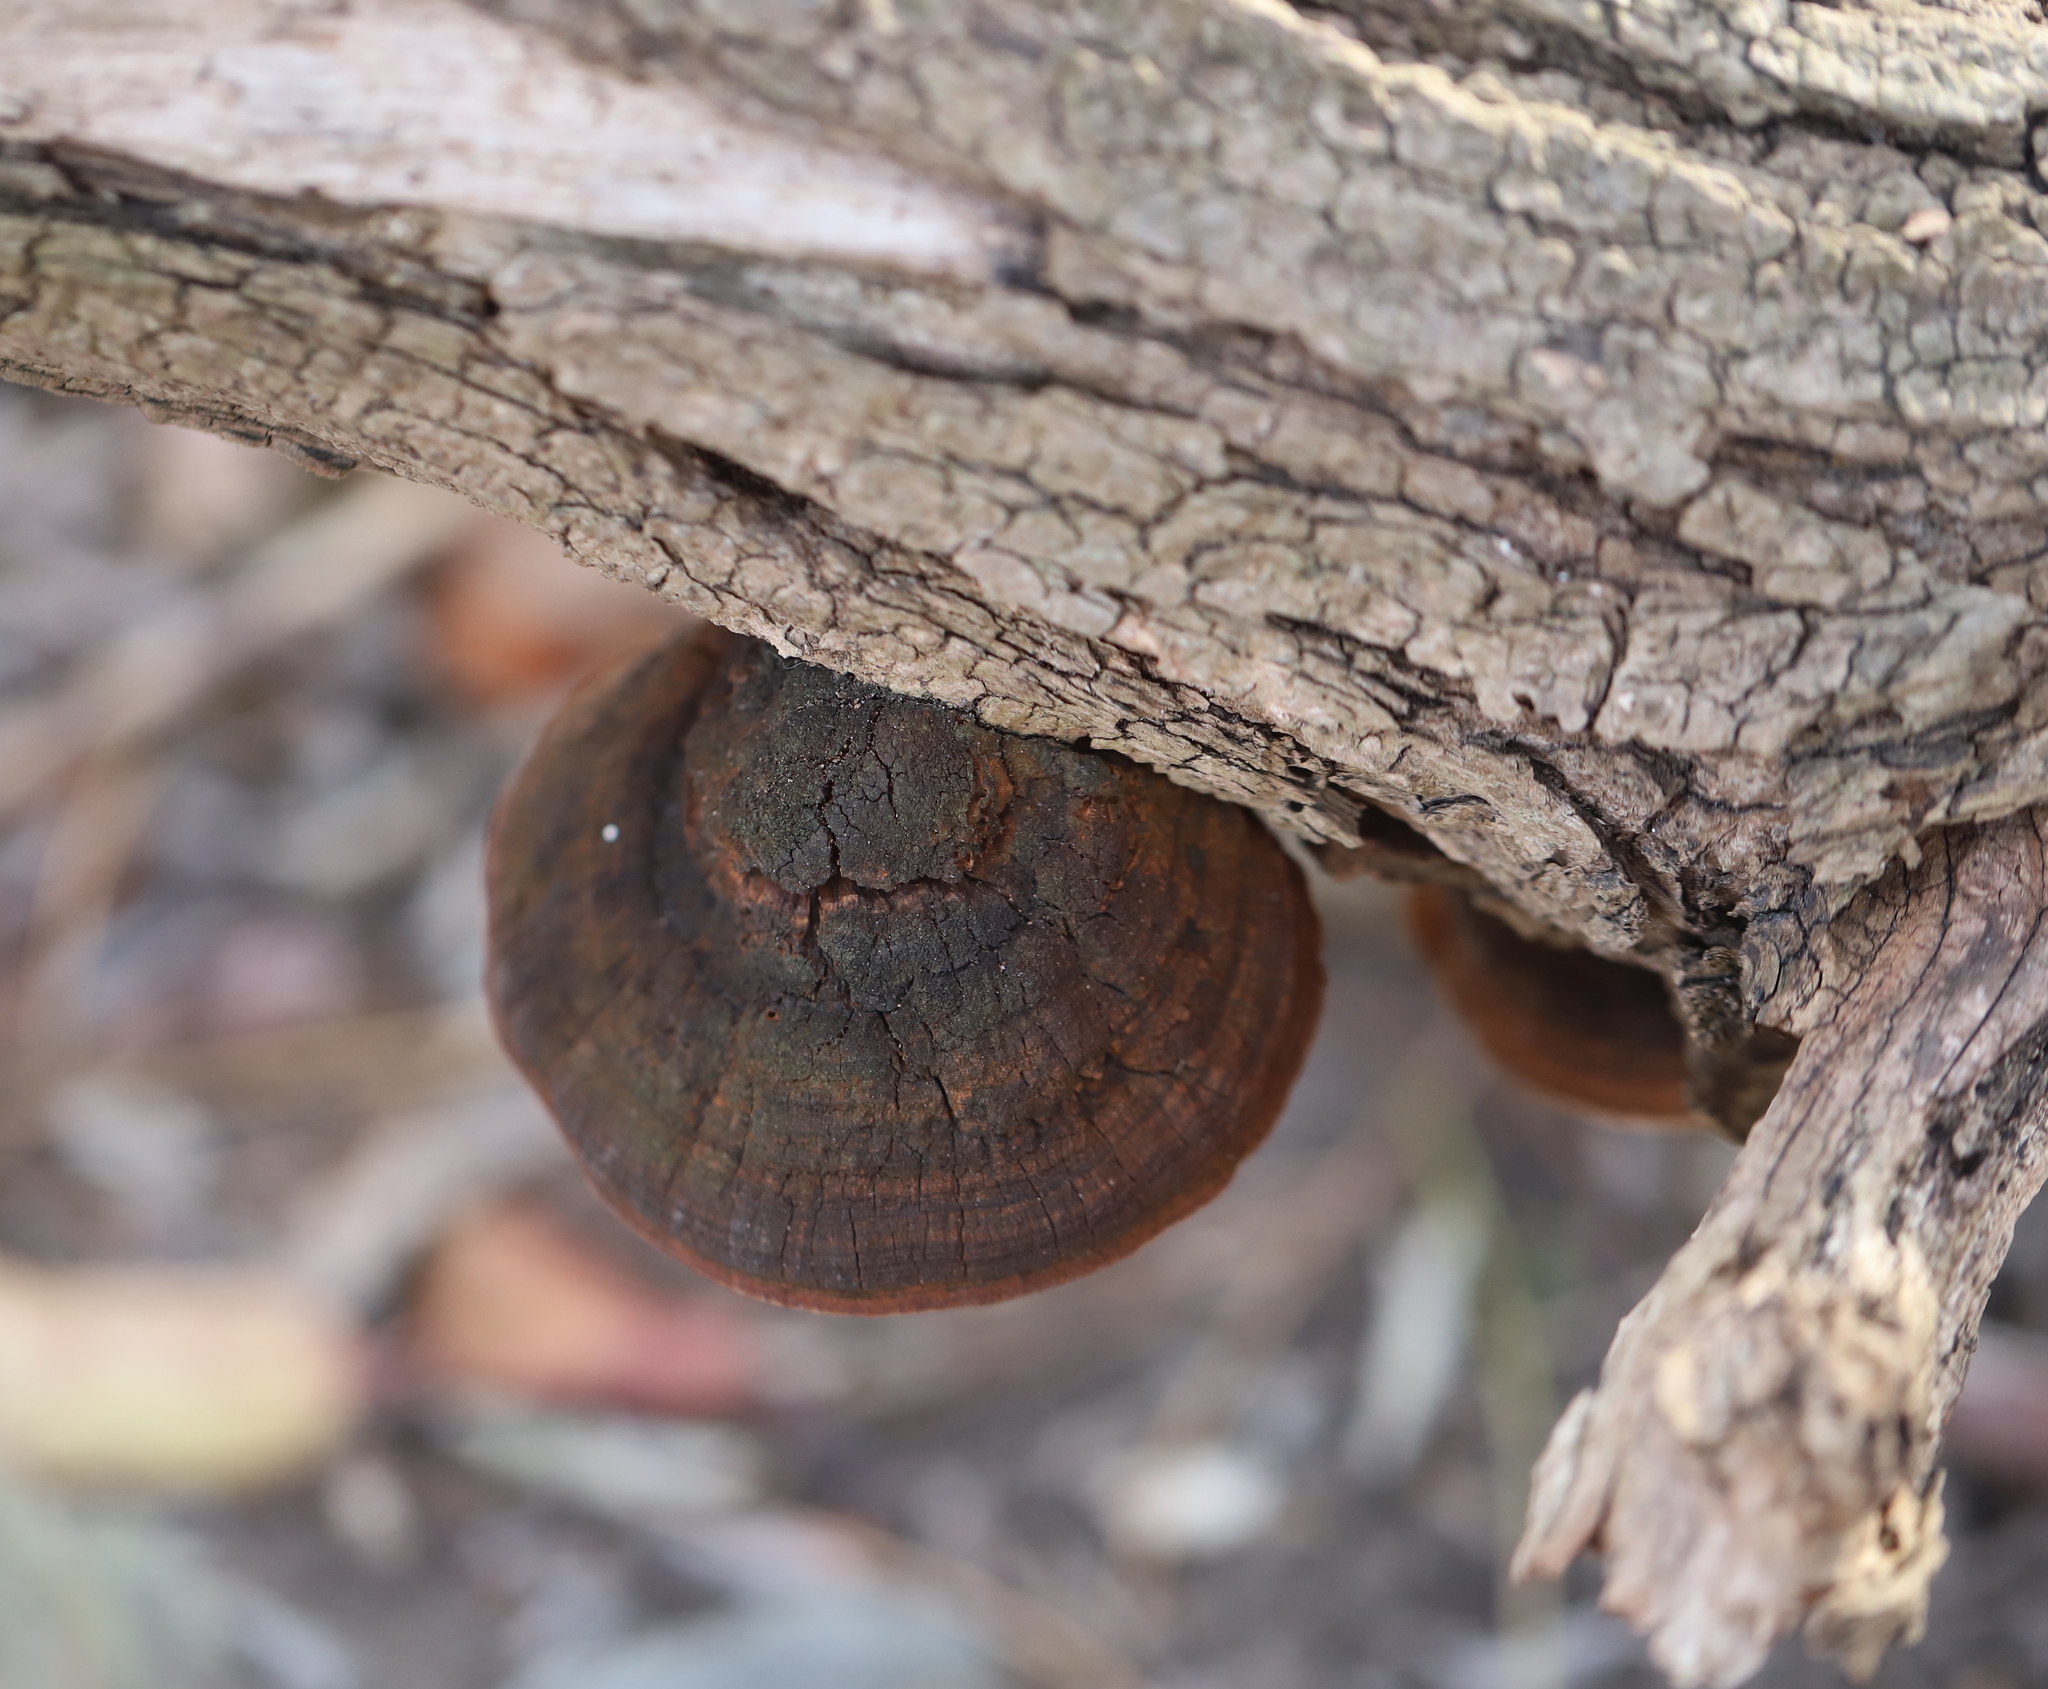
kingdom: Fungi
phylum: Basidiomycota
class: Agaricomycetes
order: Hymenochaetales
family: Hymenochaetaceae
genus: Phellinus
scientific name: Phellinus robiniae
